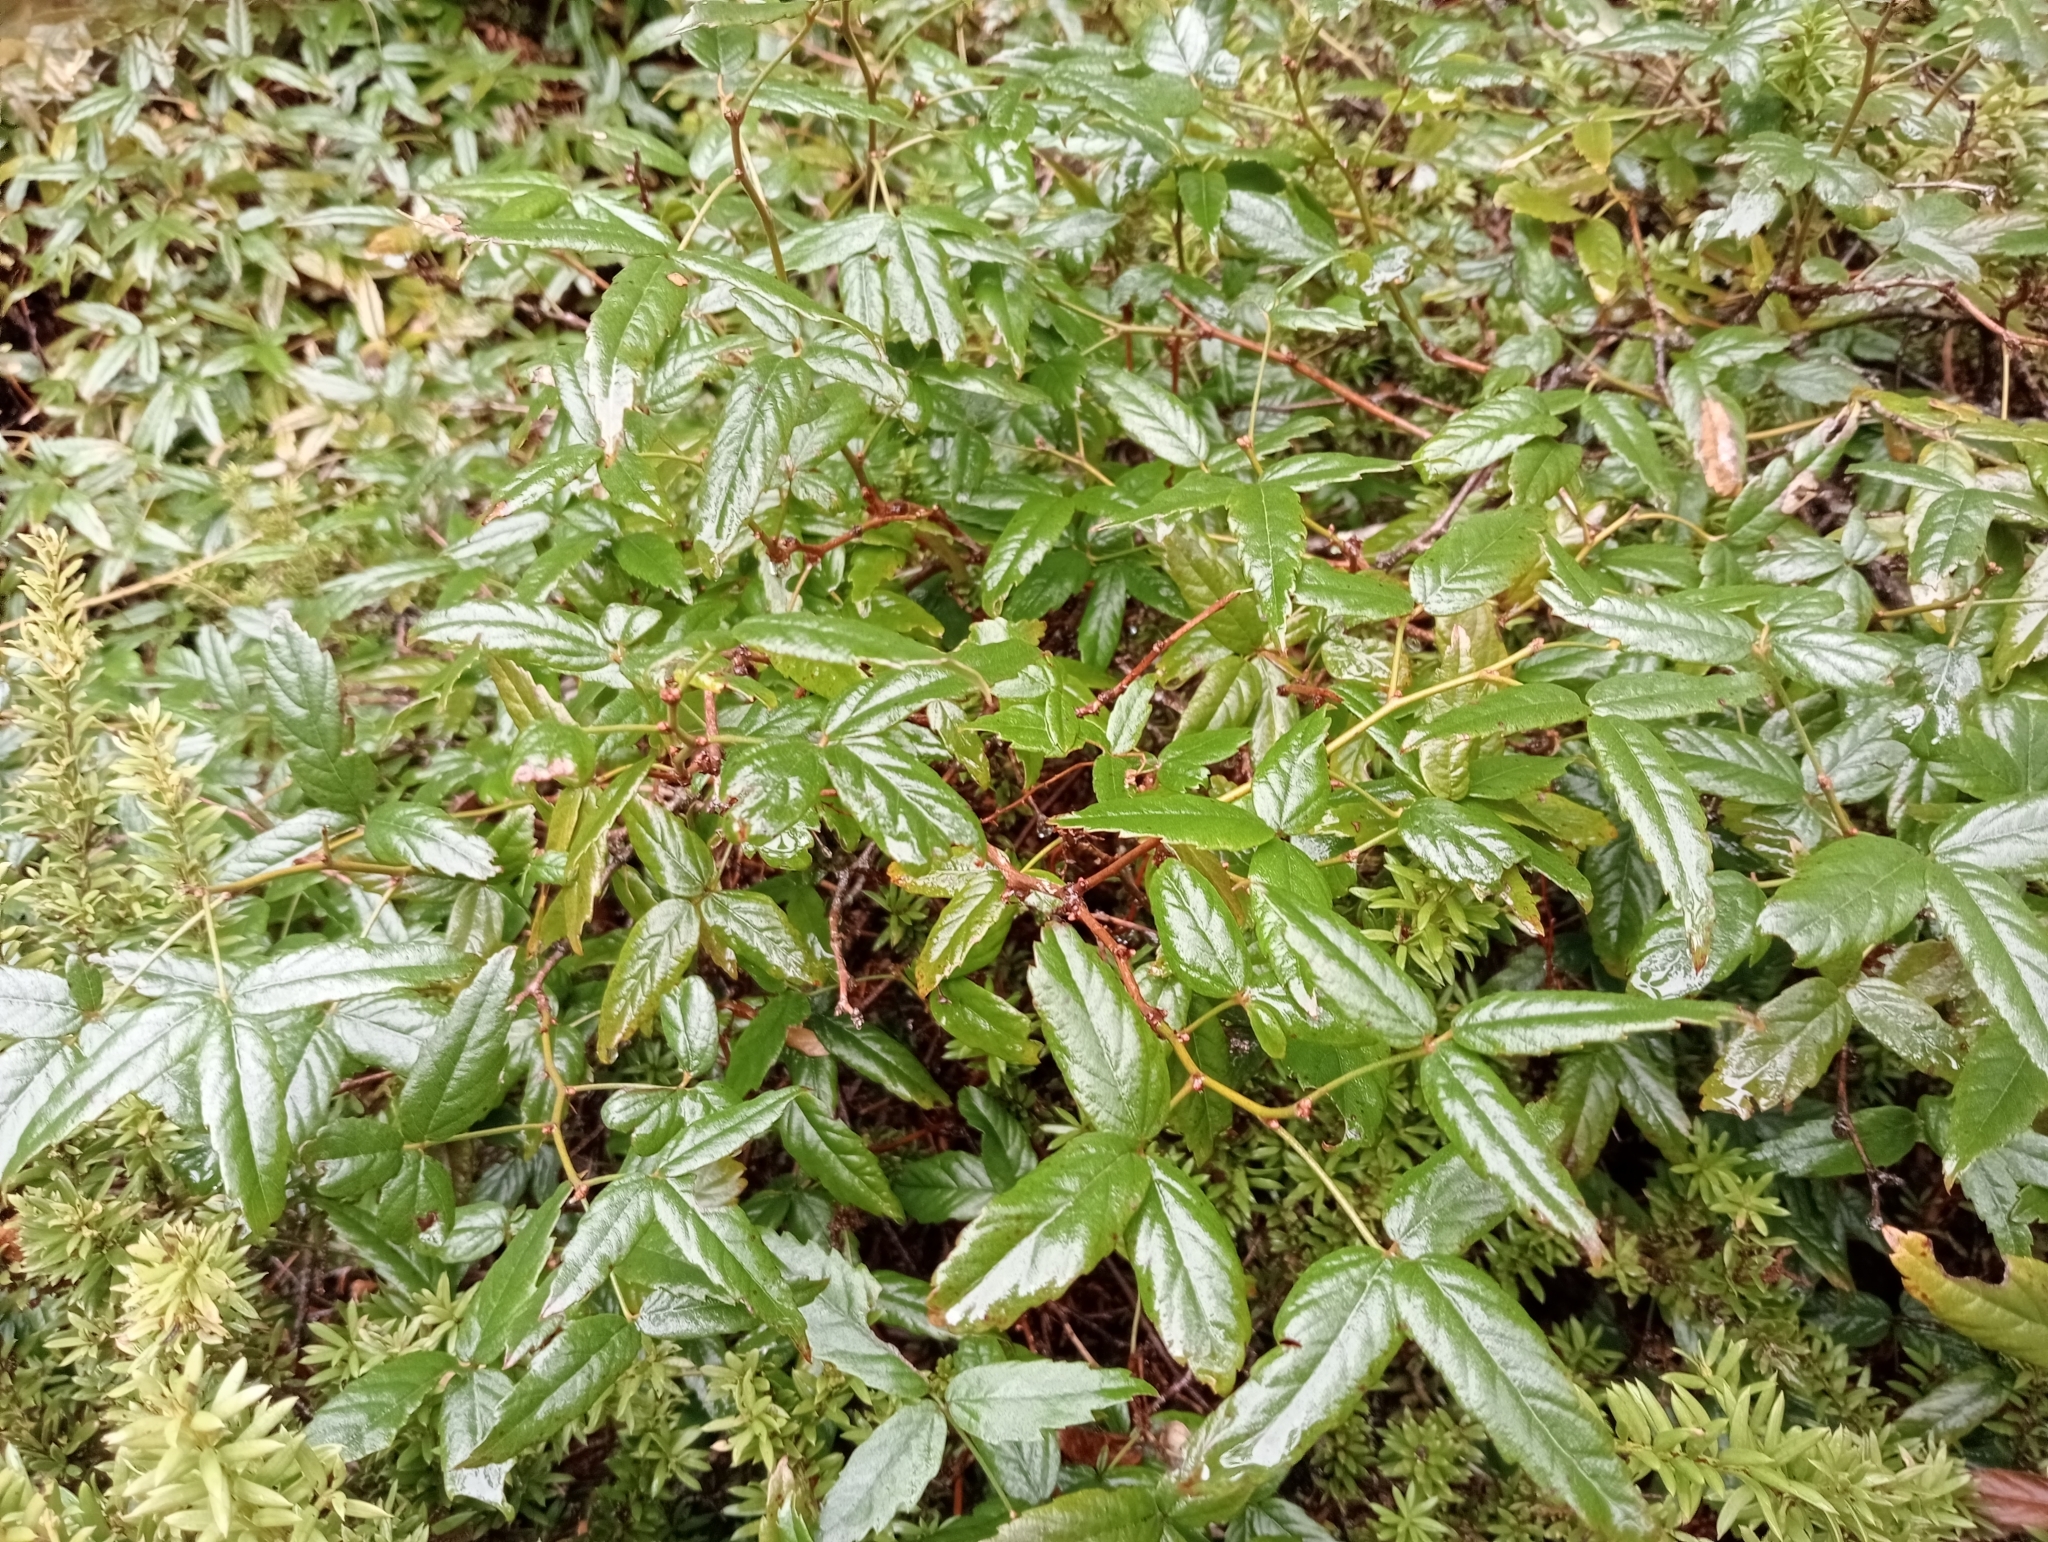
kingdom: Plantae
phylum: Tracheophyta
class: Magnoliopsida
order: Rosales
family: Rosaceae
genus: Rubus
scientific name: Rubus schmidelioides
